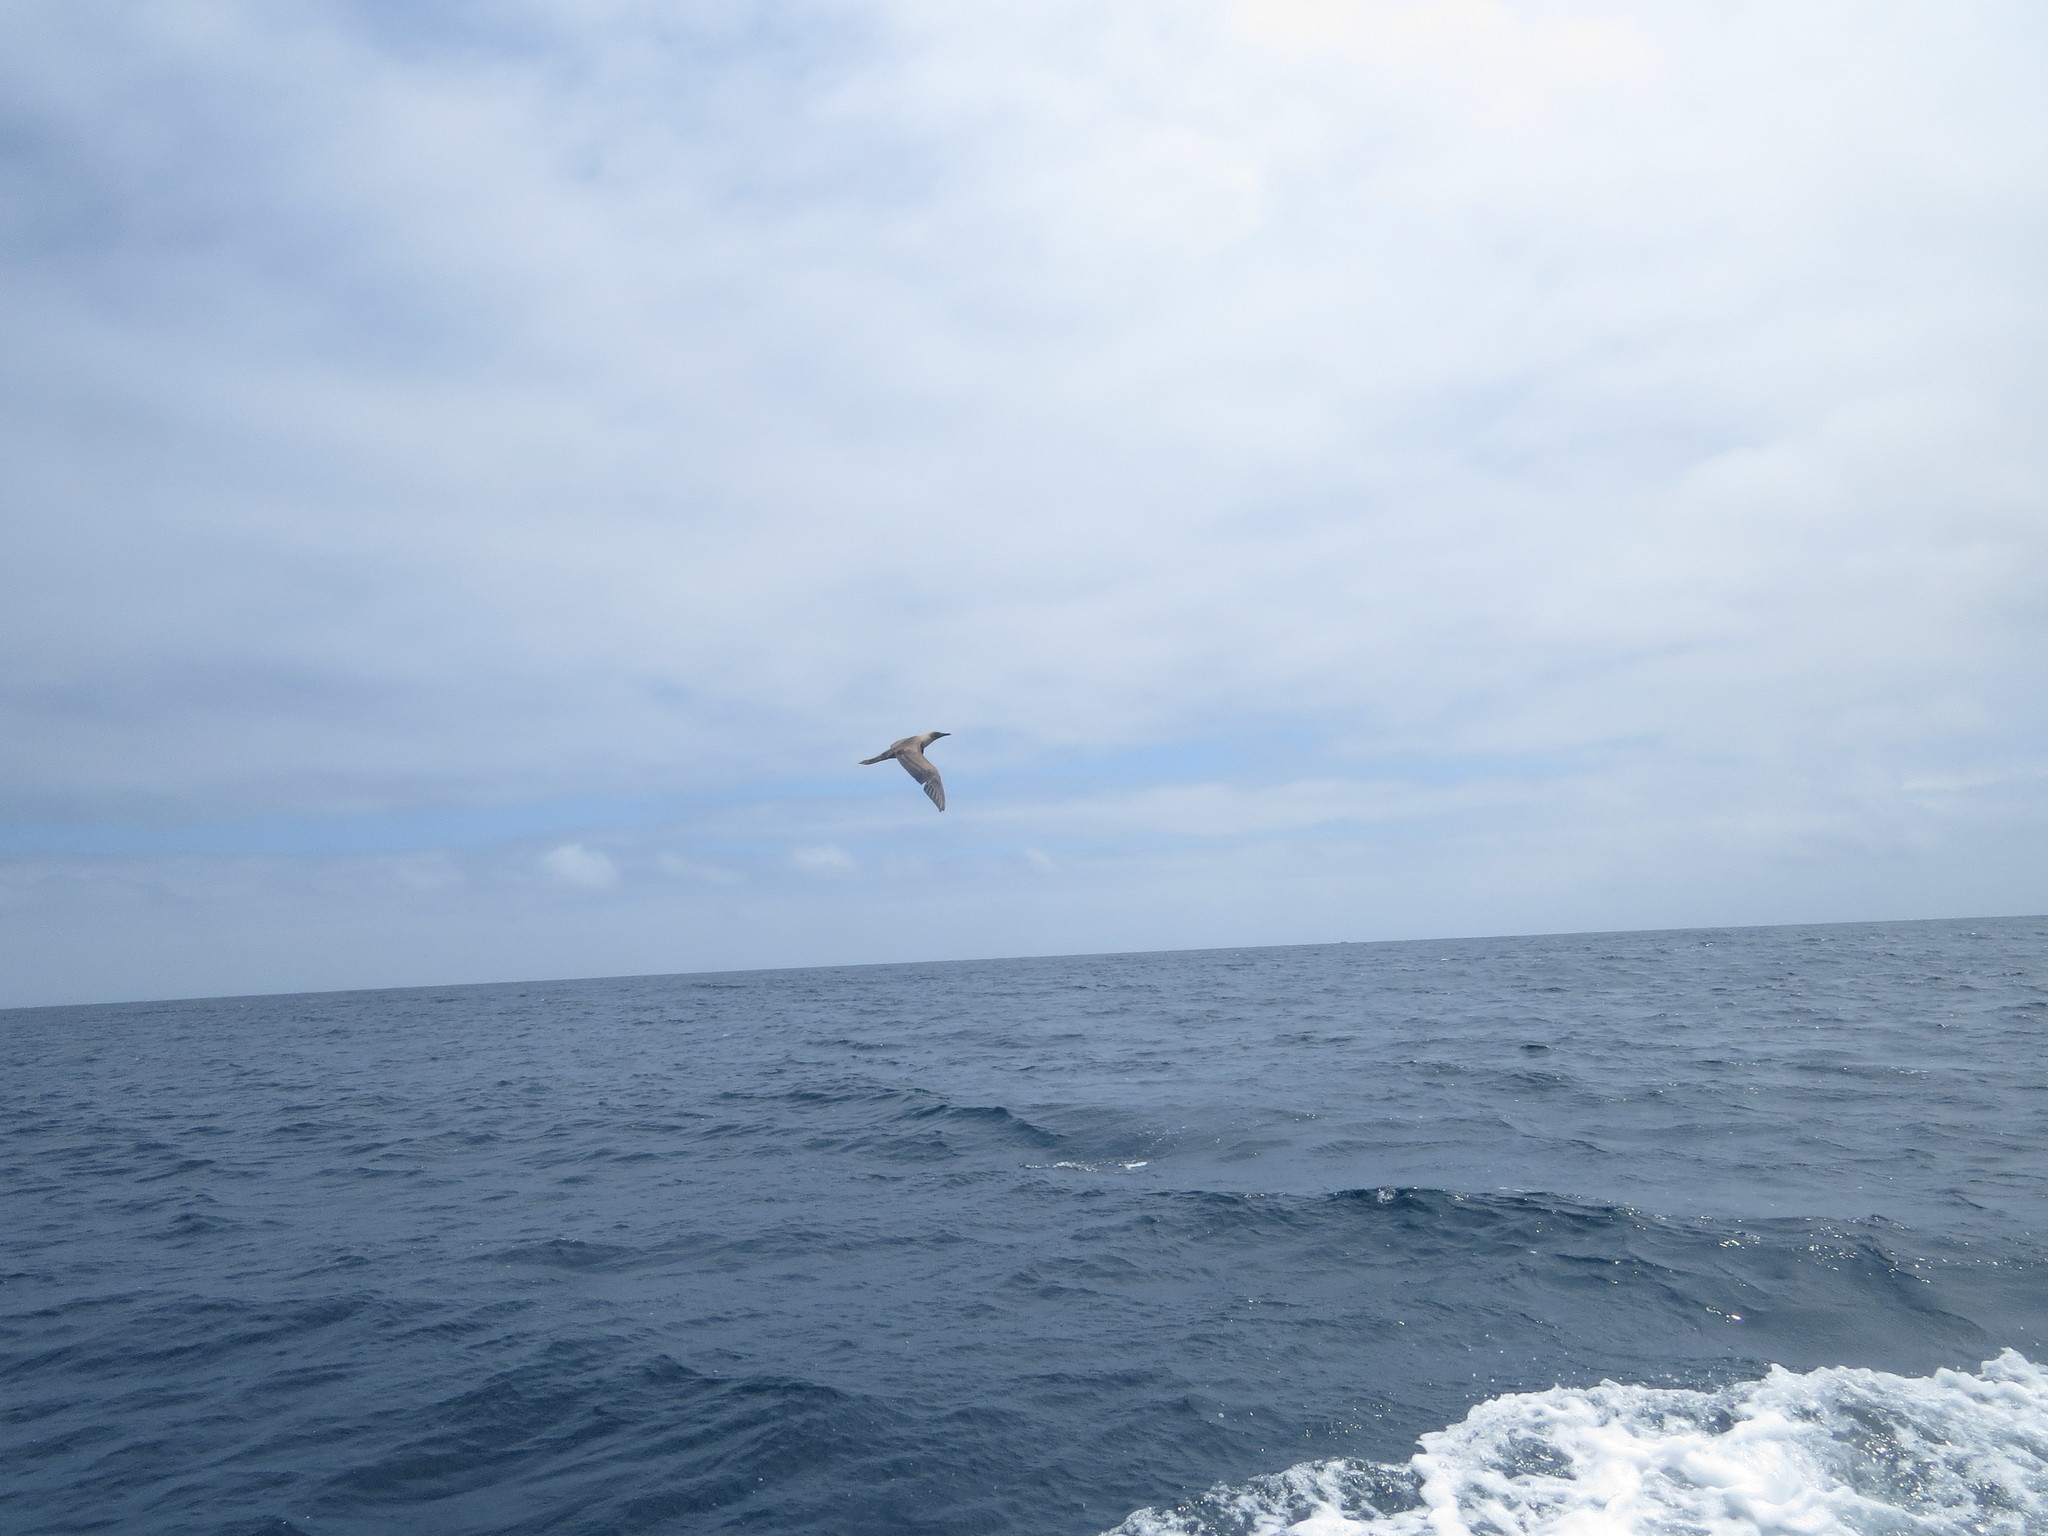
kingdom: Animalia
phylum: Chordata
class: Aves
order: Suliformes
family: Sulidae
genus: Sula
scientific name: Sula sula
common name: Red-footed booby
